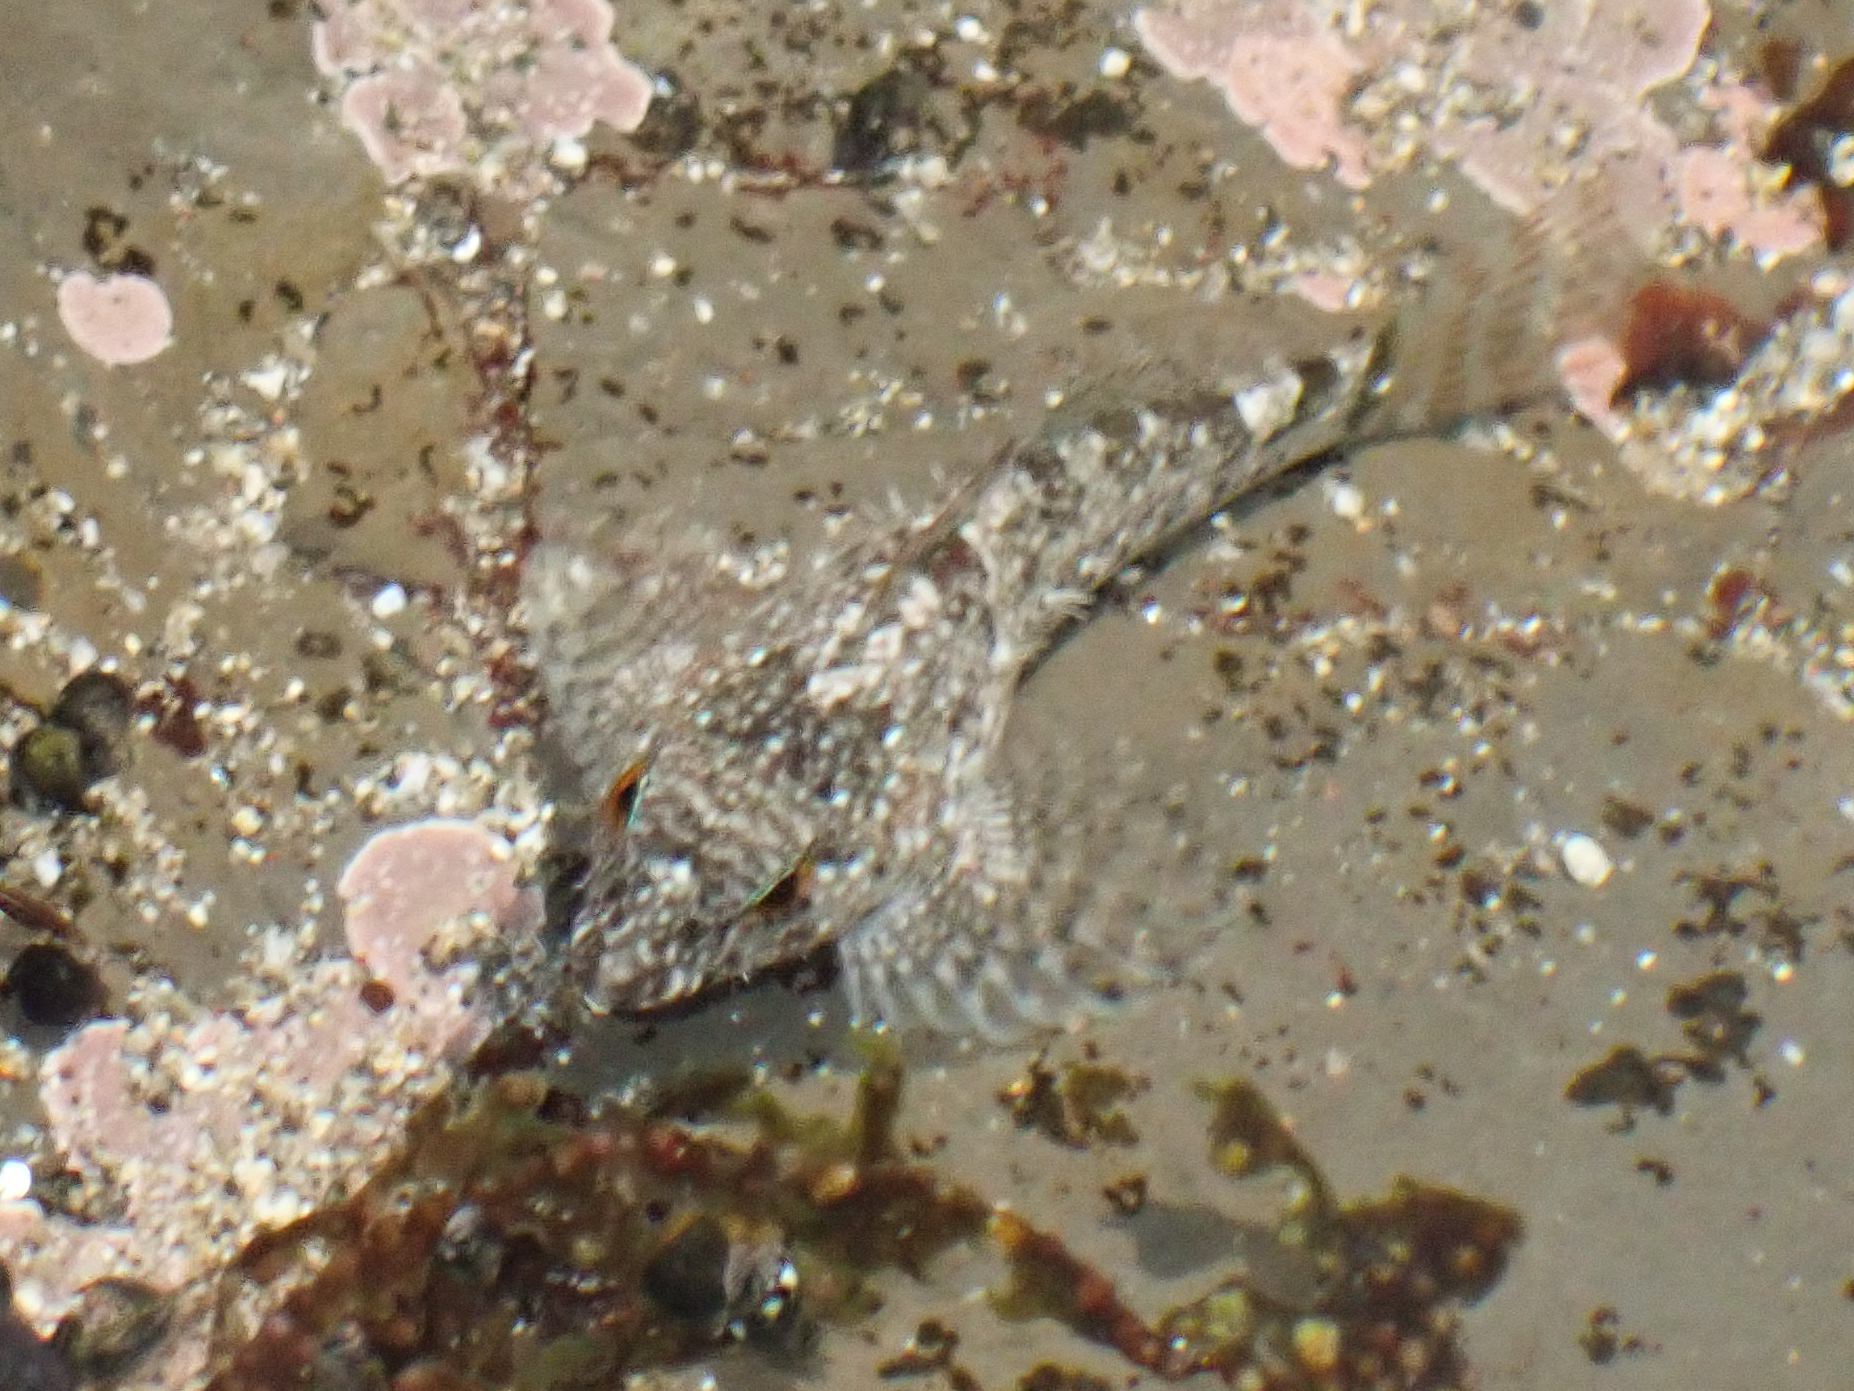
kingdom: Animalia
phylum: Chordata
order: Scorpaeniformes
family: Cottidae
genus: Clinocottus
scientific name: Clinocottus analis
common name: Woolly sculpin
